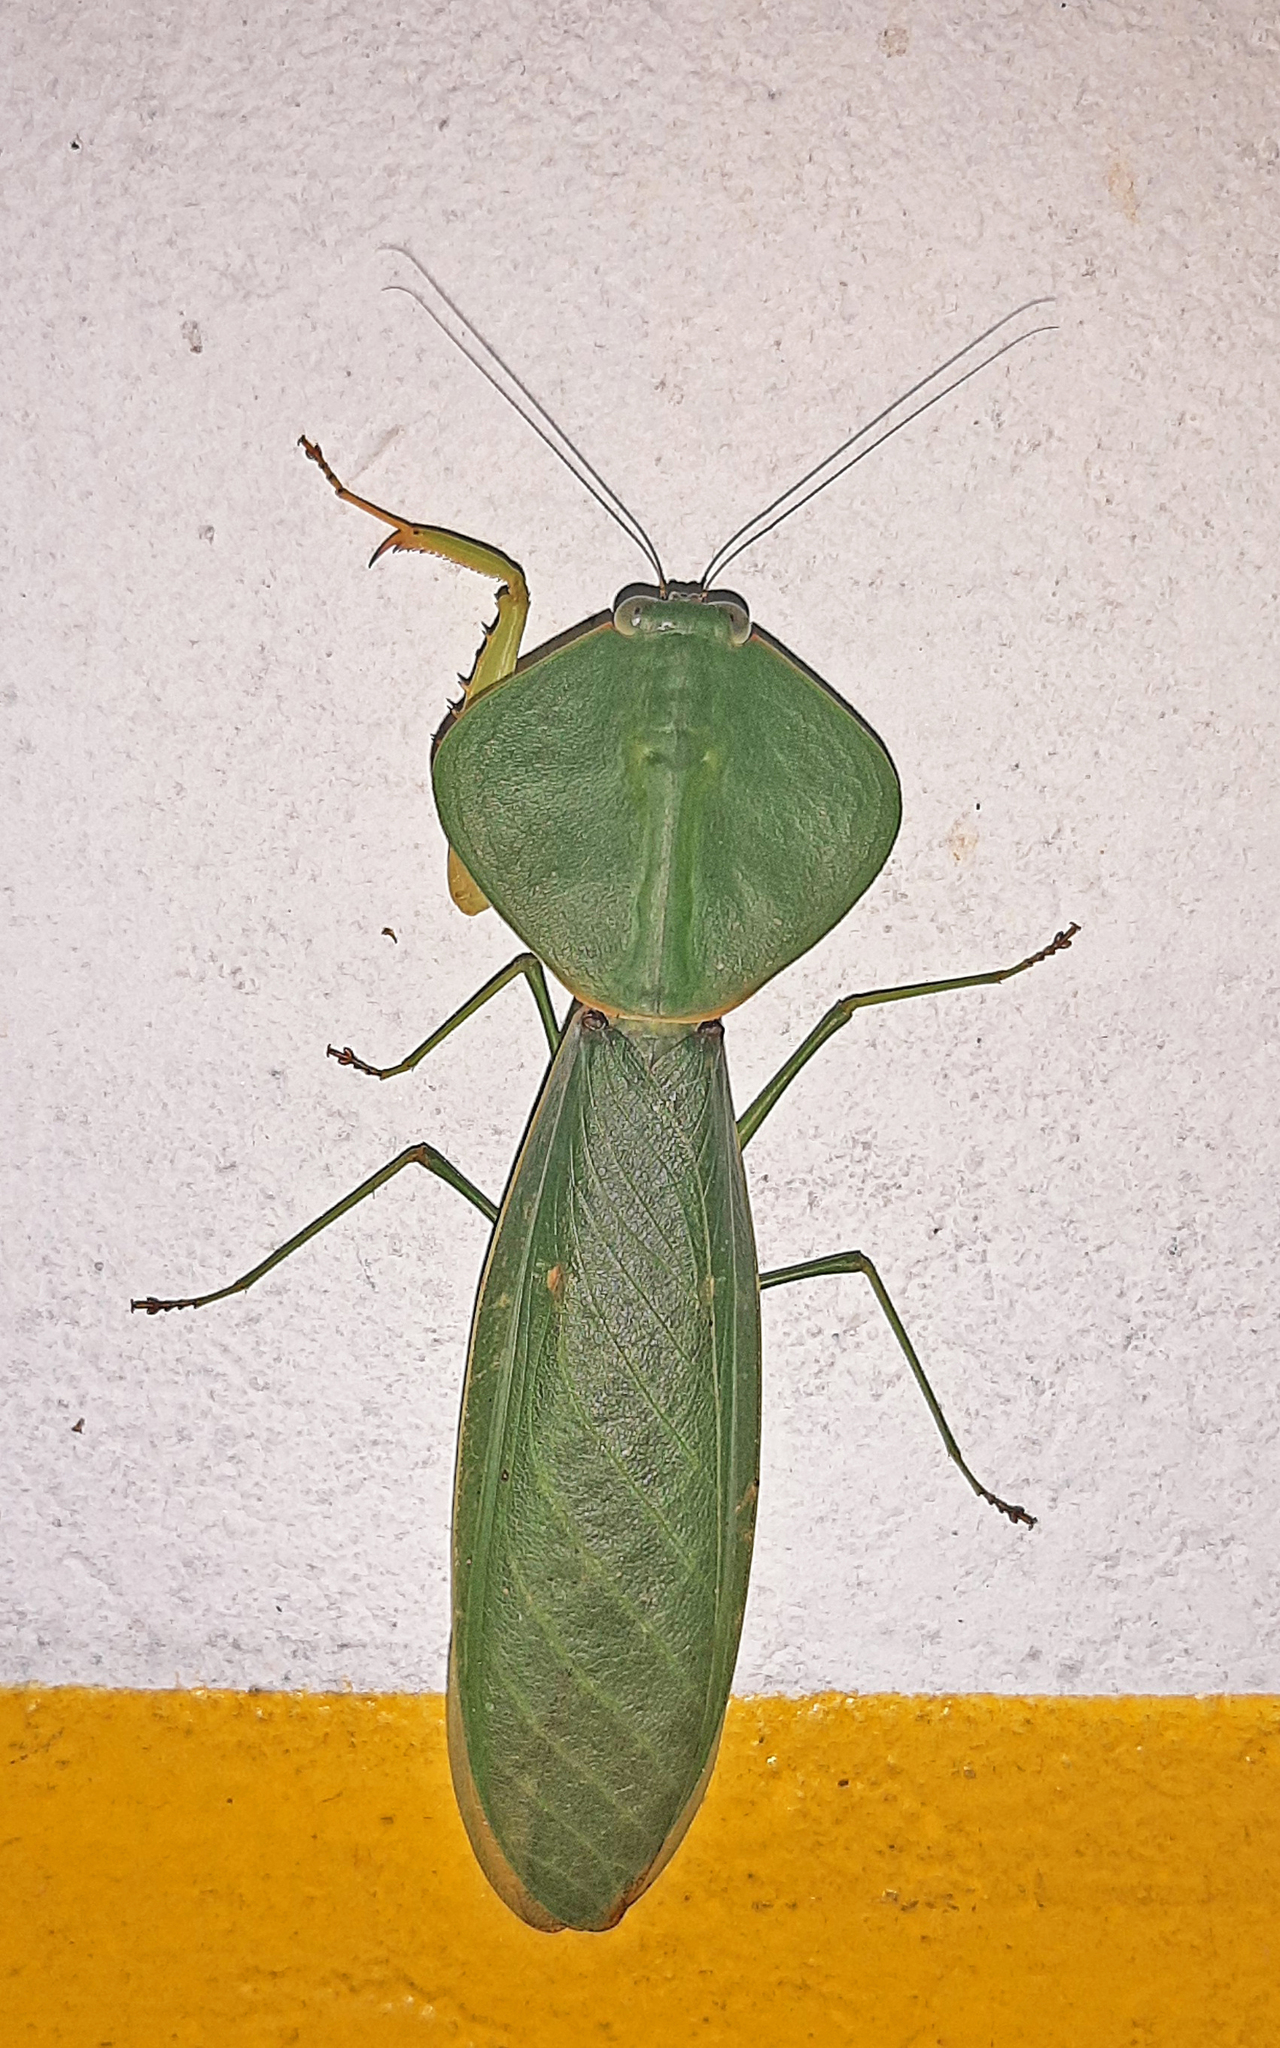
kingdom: Animalia
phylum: Arthropoda
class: Insecta
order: Mantodea
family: Mantidae
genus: Choeradodis
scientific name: Choeradodis rhombicollis
